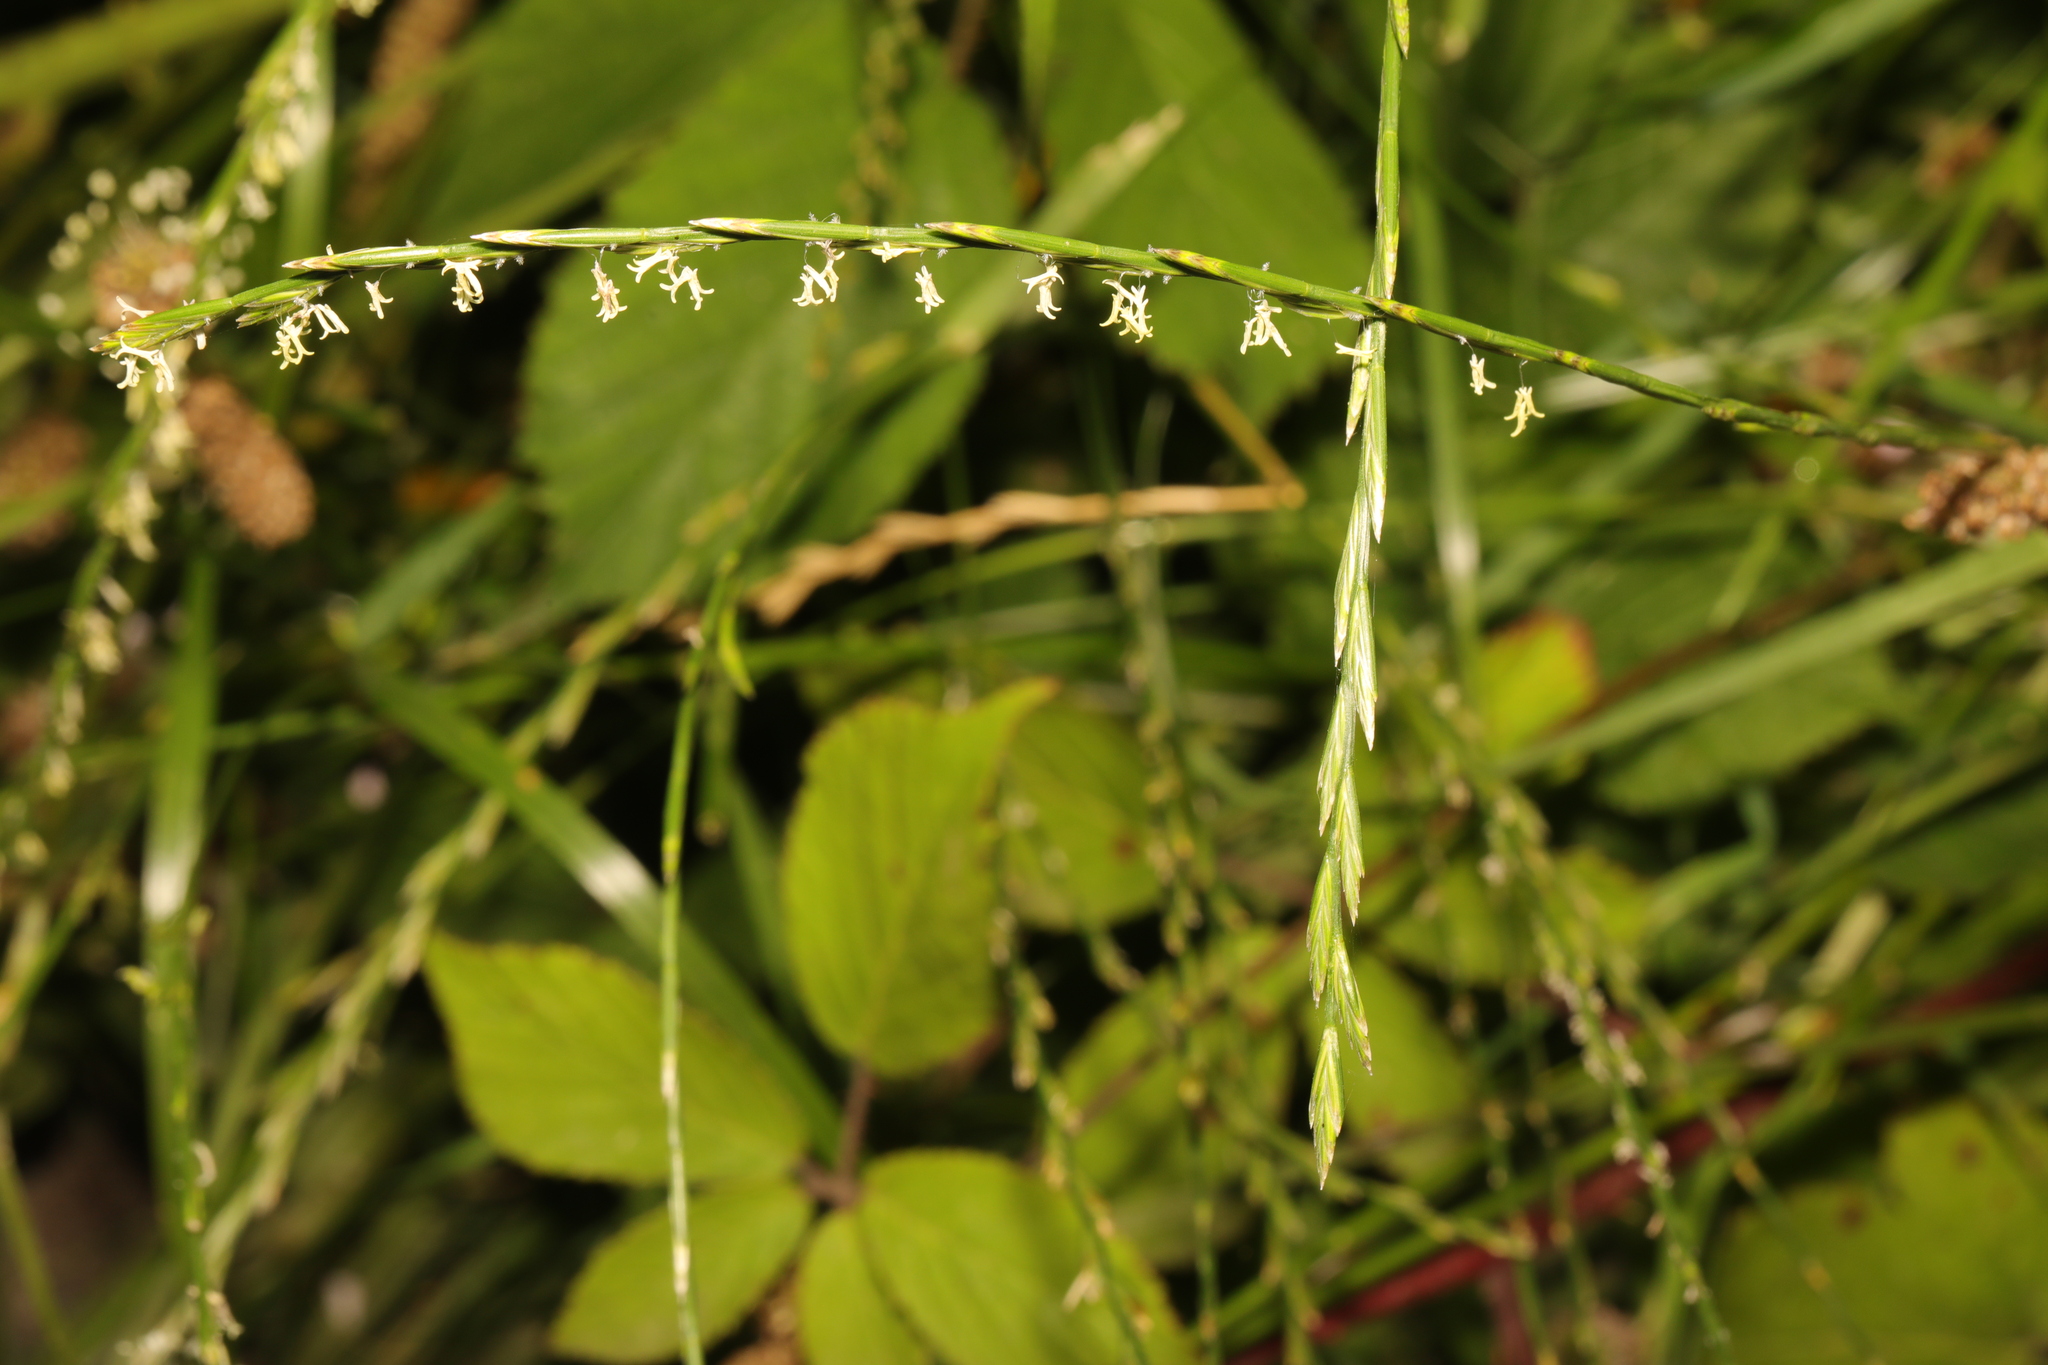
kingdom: Plantae
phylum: Tracheophyta
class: Liliopsida
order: Poales
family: Poaceae
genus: Lolium
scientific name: Lolium perenne
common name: Perennial ryegrass
